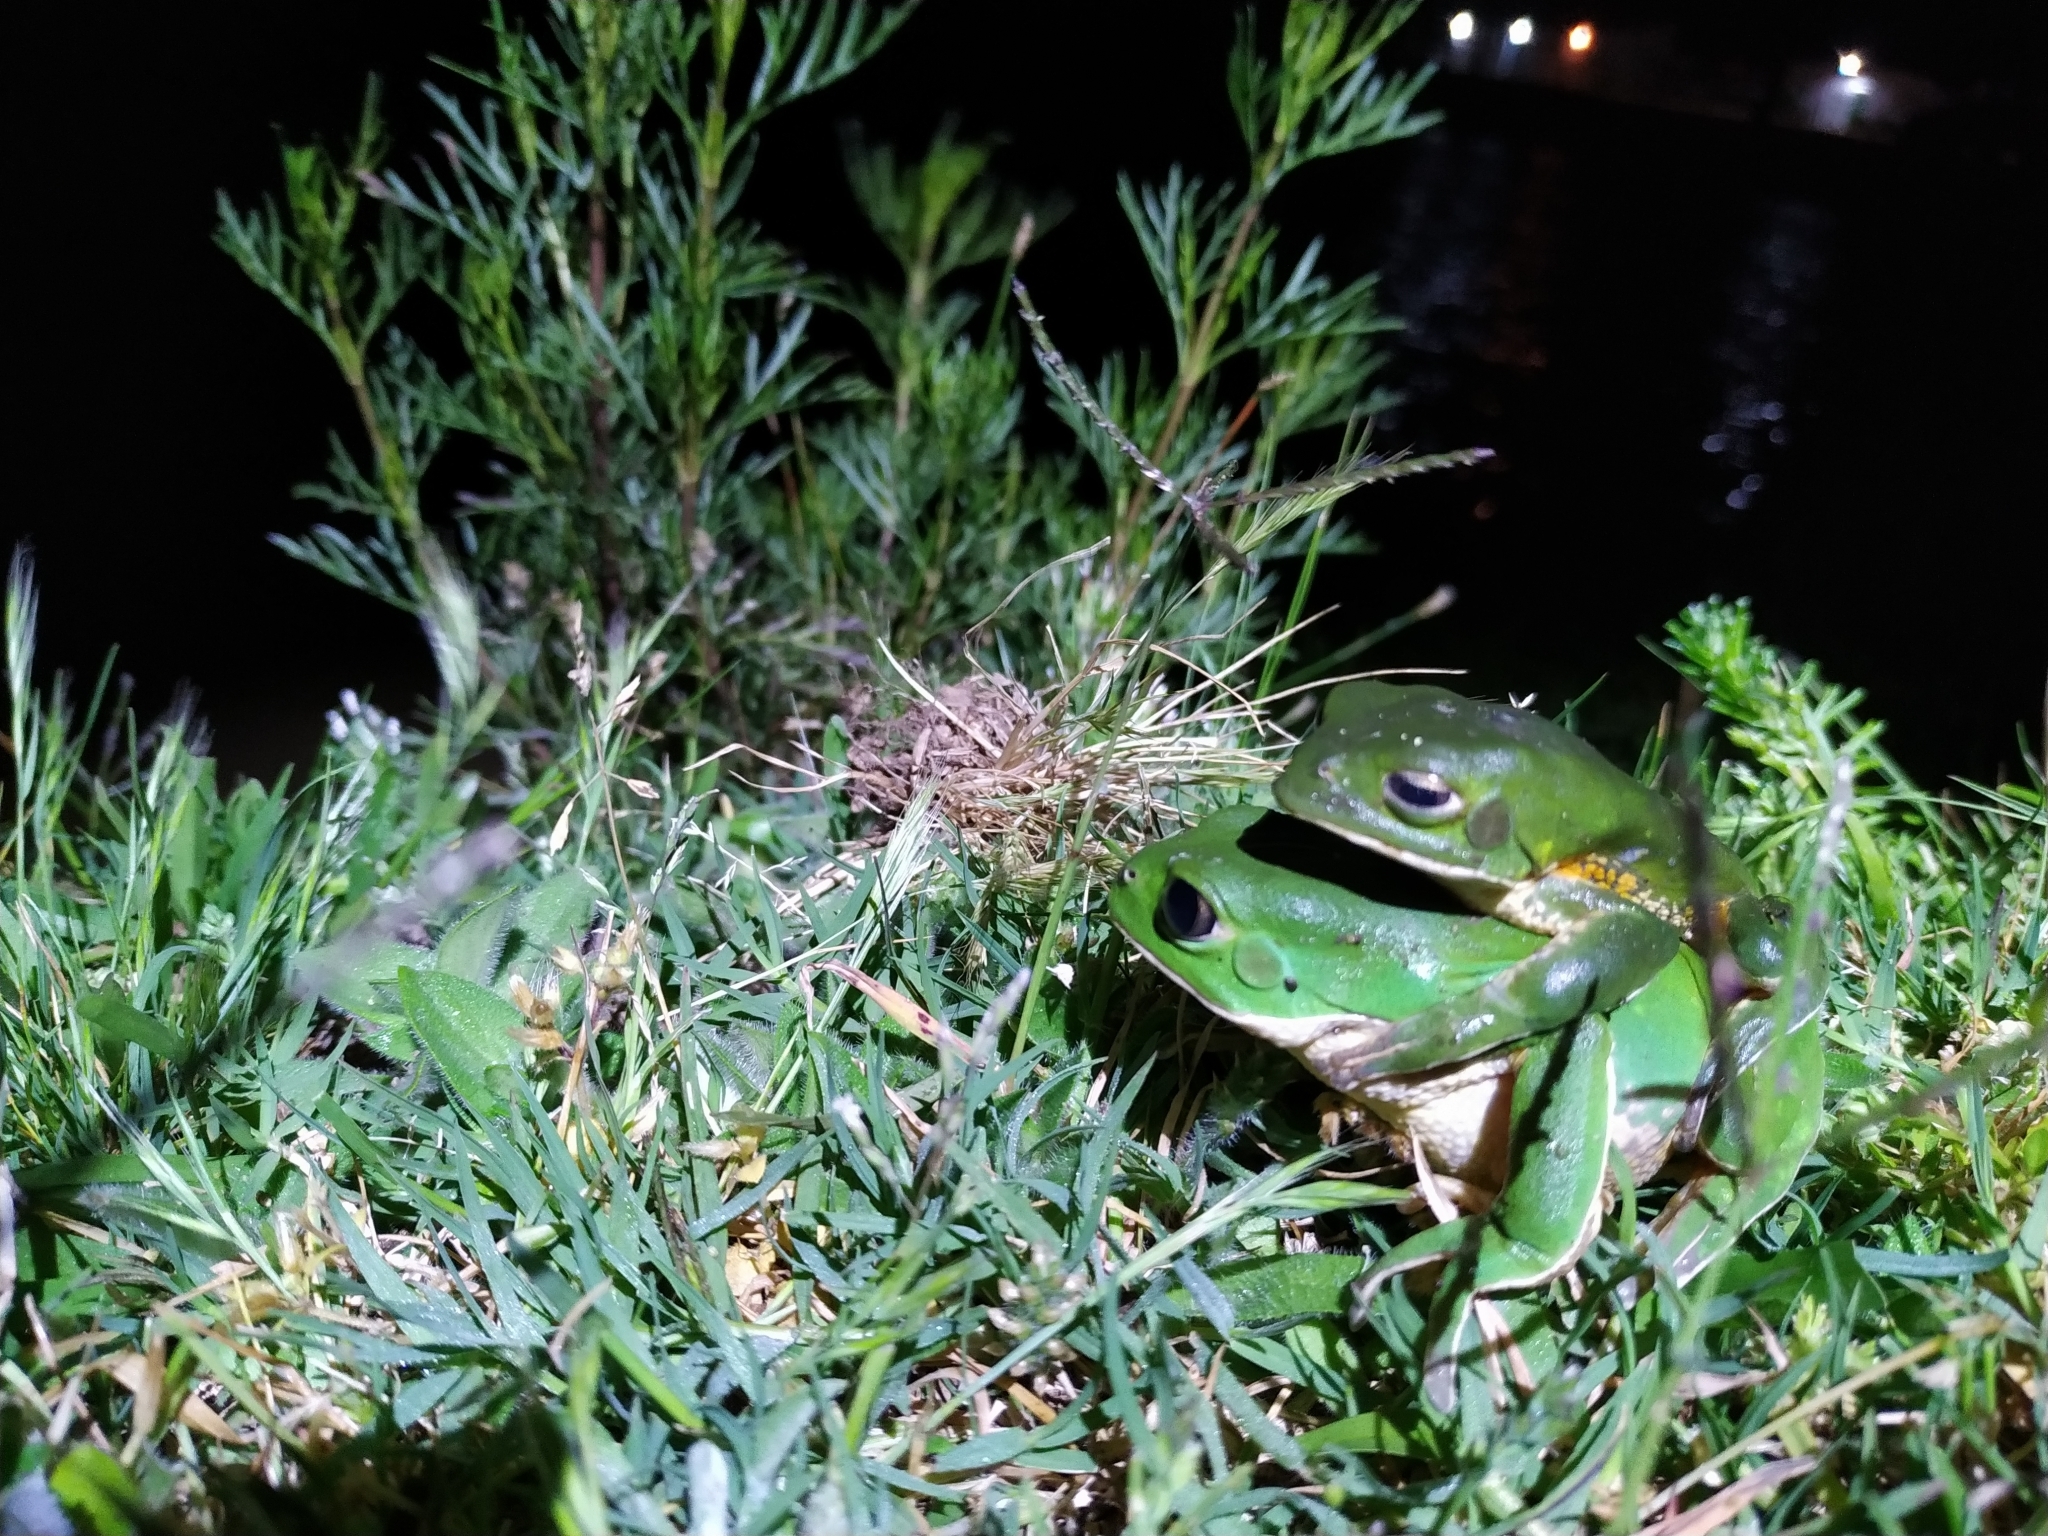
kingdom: Animalia
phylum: Chordata
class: Amphibia
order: Anura
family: Phyllomedusidae
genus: Phyllomedusa
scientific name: Phyllomedusa iheringii
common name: Southern walking leaf frog
